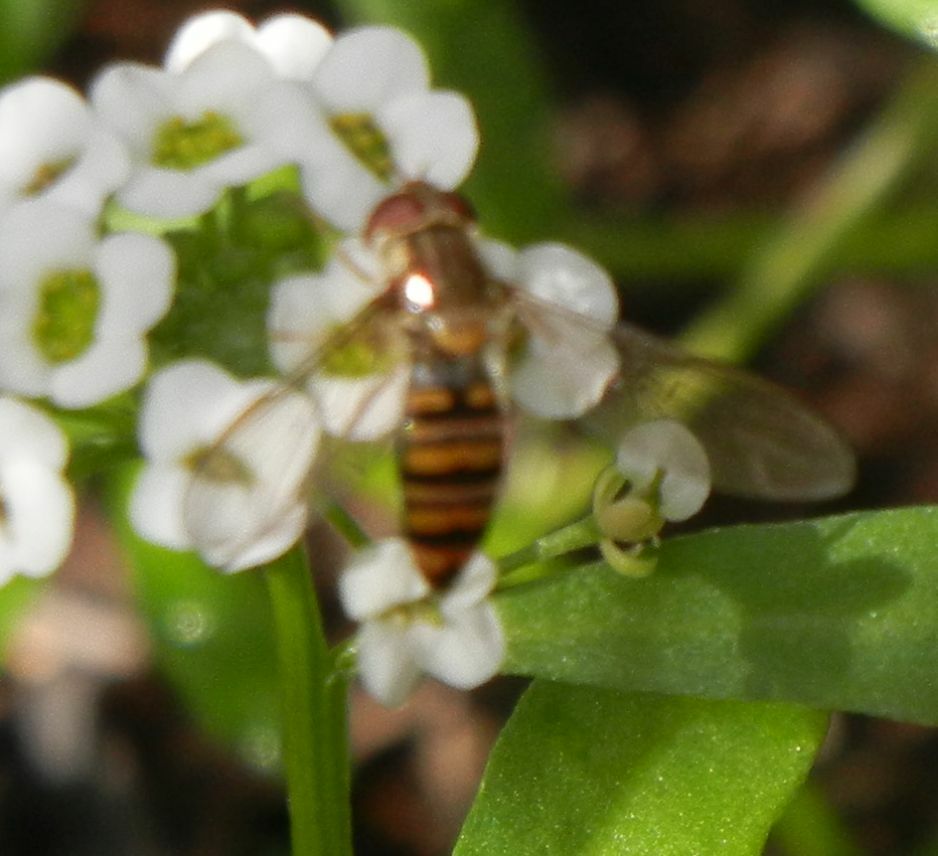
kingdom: Animalia
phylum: Arthropoda
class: Insecta
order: Diptera
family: Syrphidae
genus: Episyrphus
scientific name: Episyrphus balteatus
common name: Marmalade hoverfly
